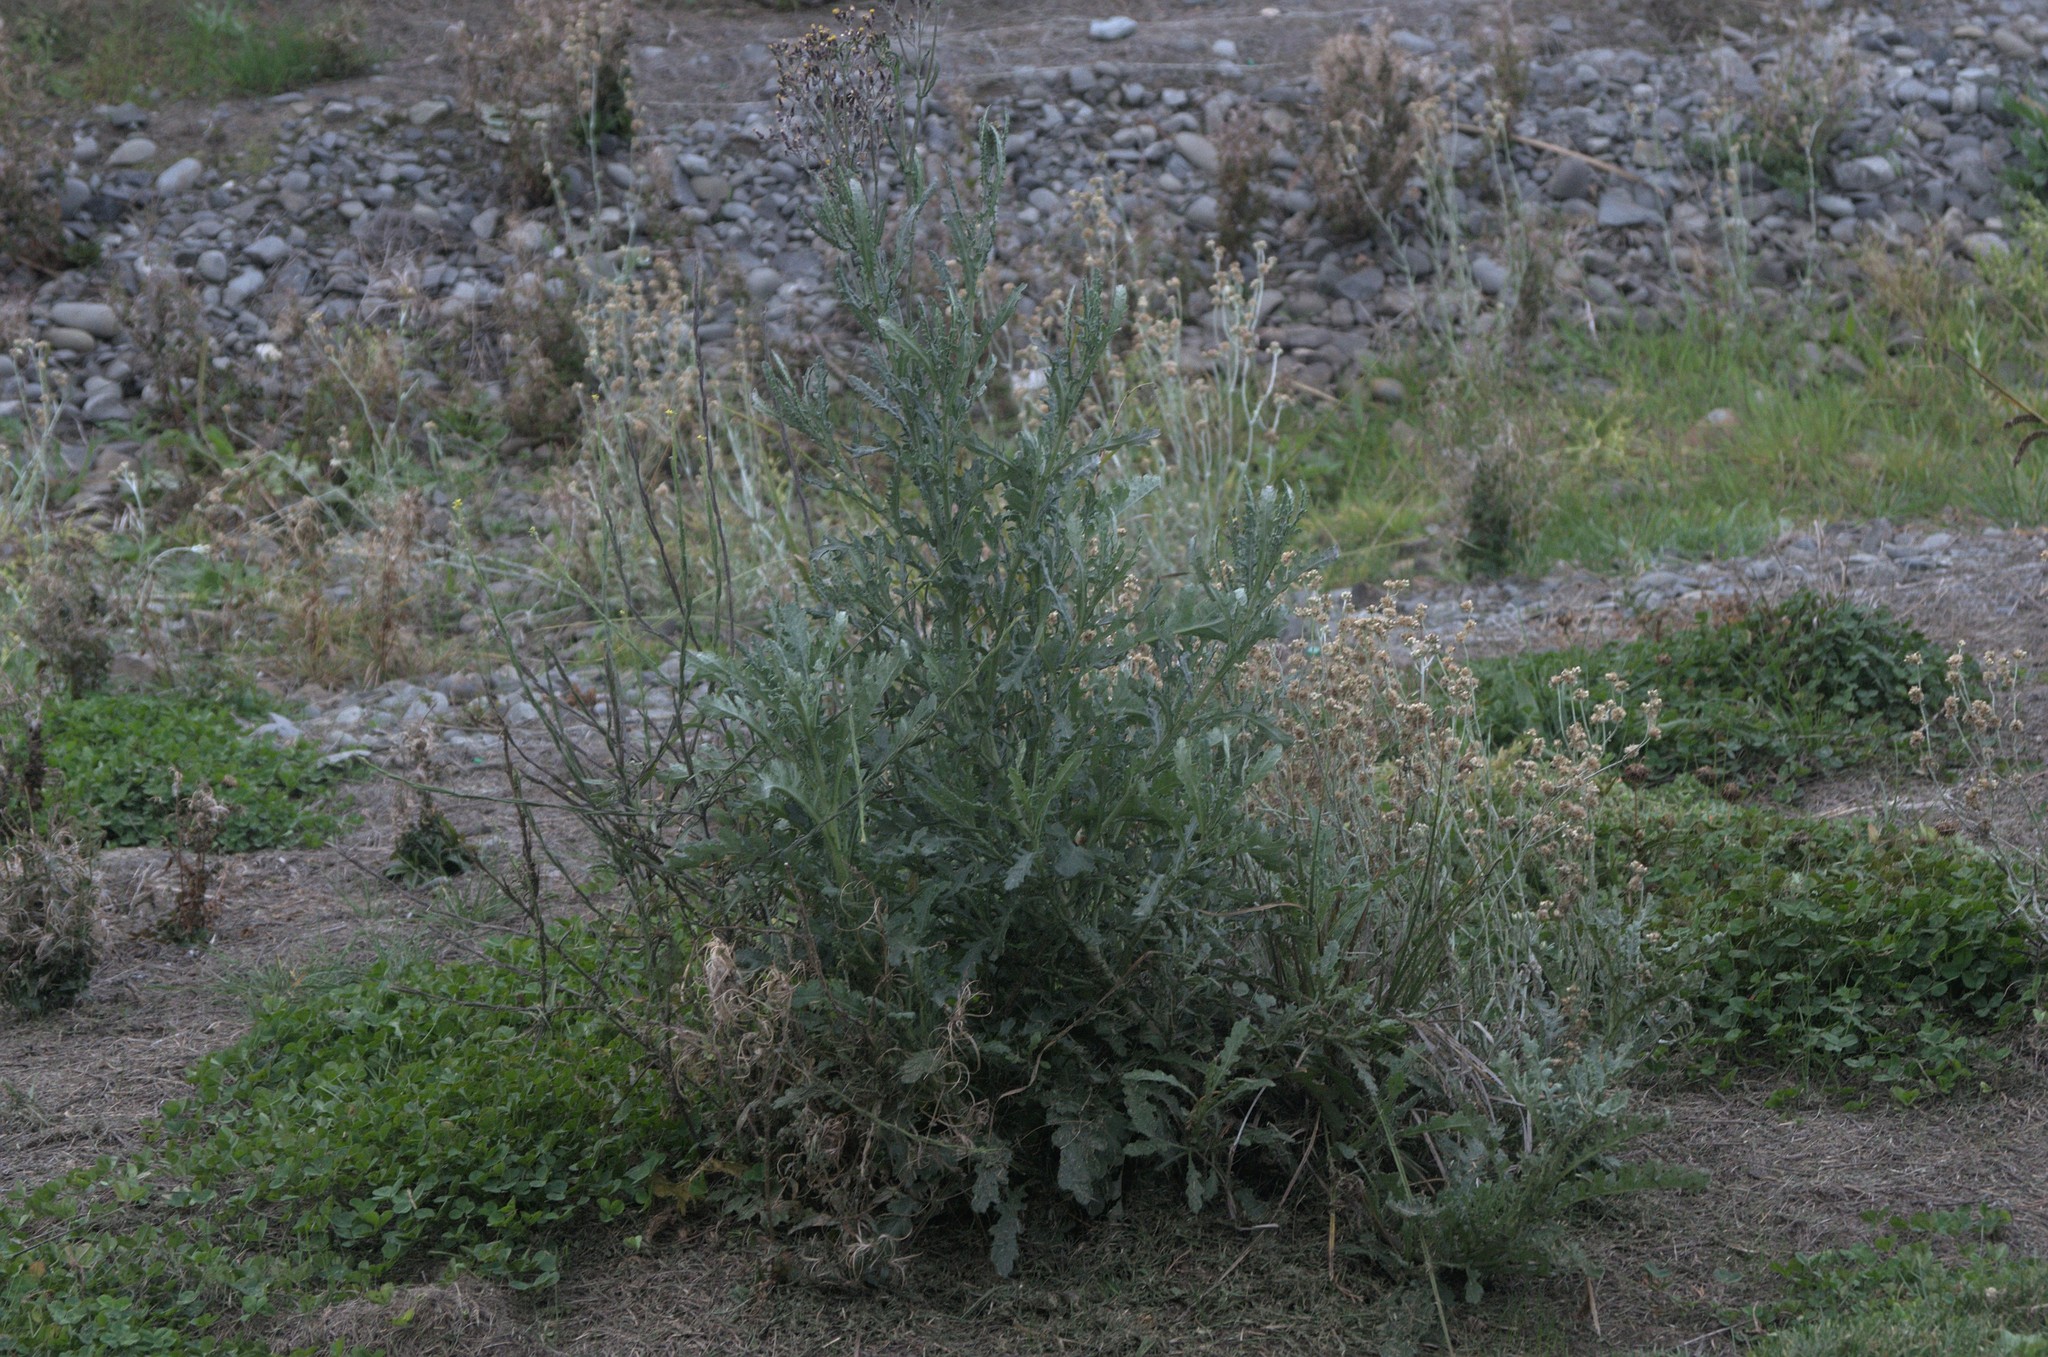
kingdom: Plantae
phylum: Tracheophyta
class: Magnoliopsida
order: Asterales
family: Asteraceae
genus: Senecio
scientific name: Senecio glomeratus
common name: Cutleaf burnweed
